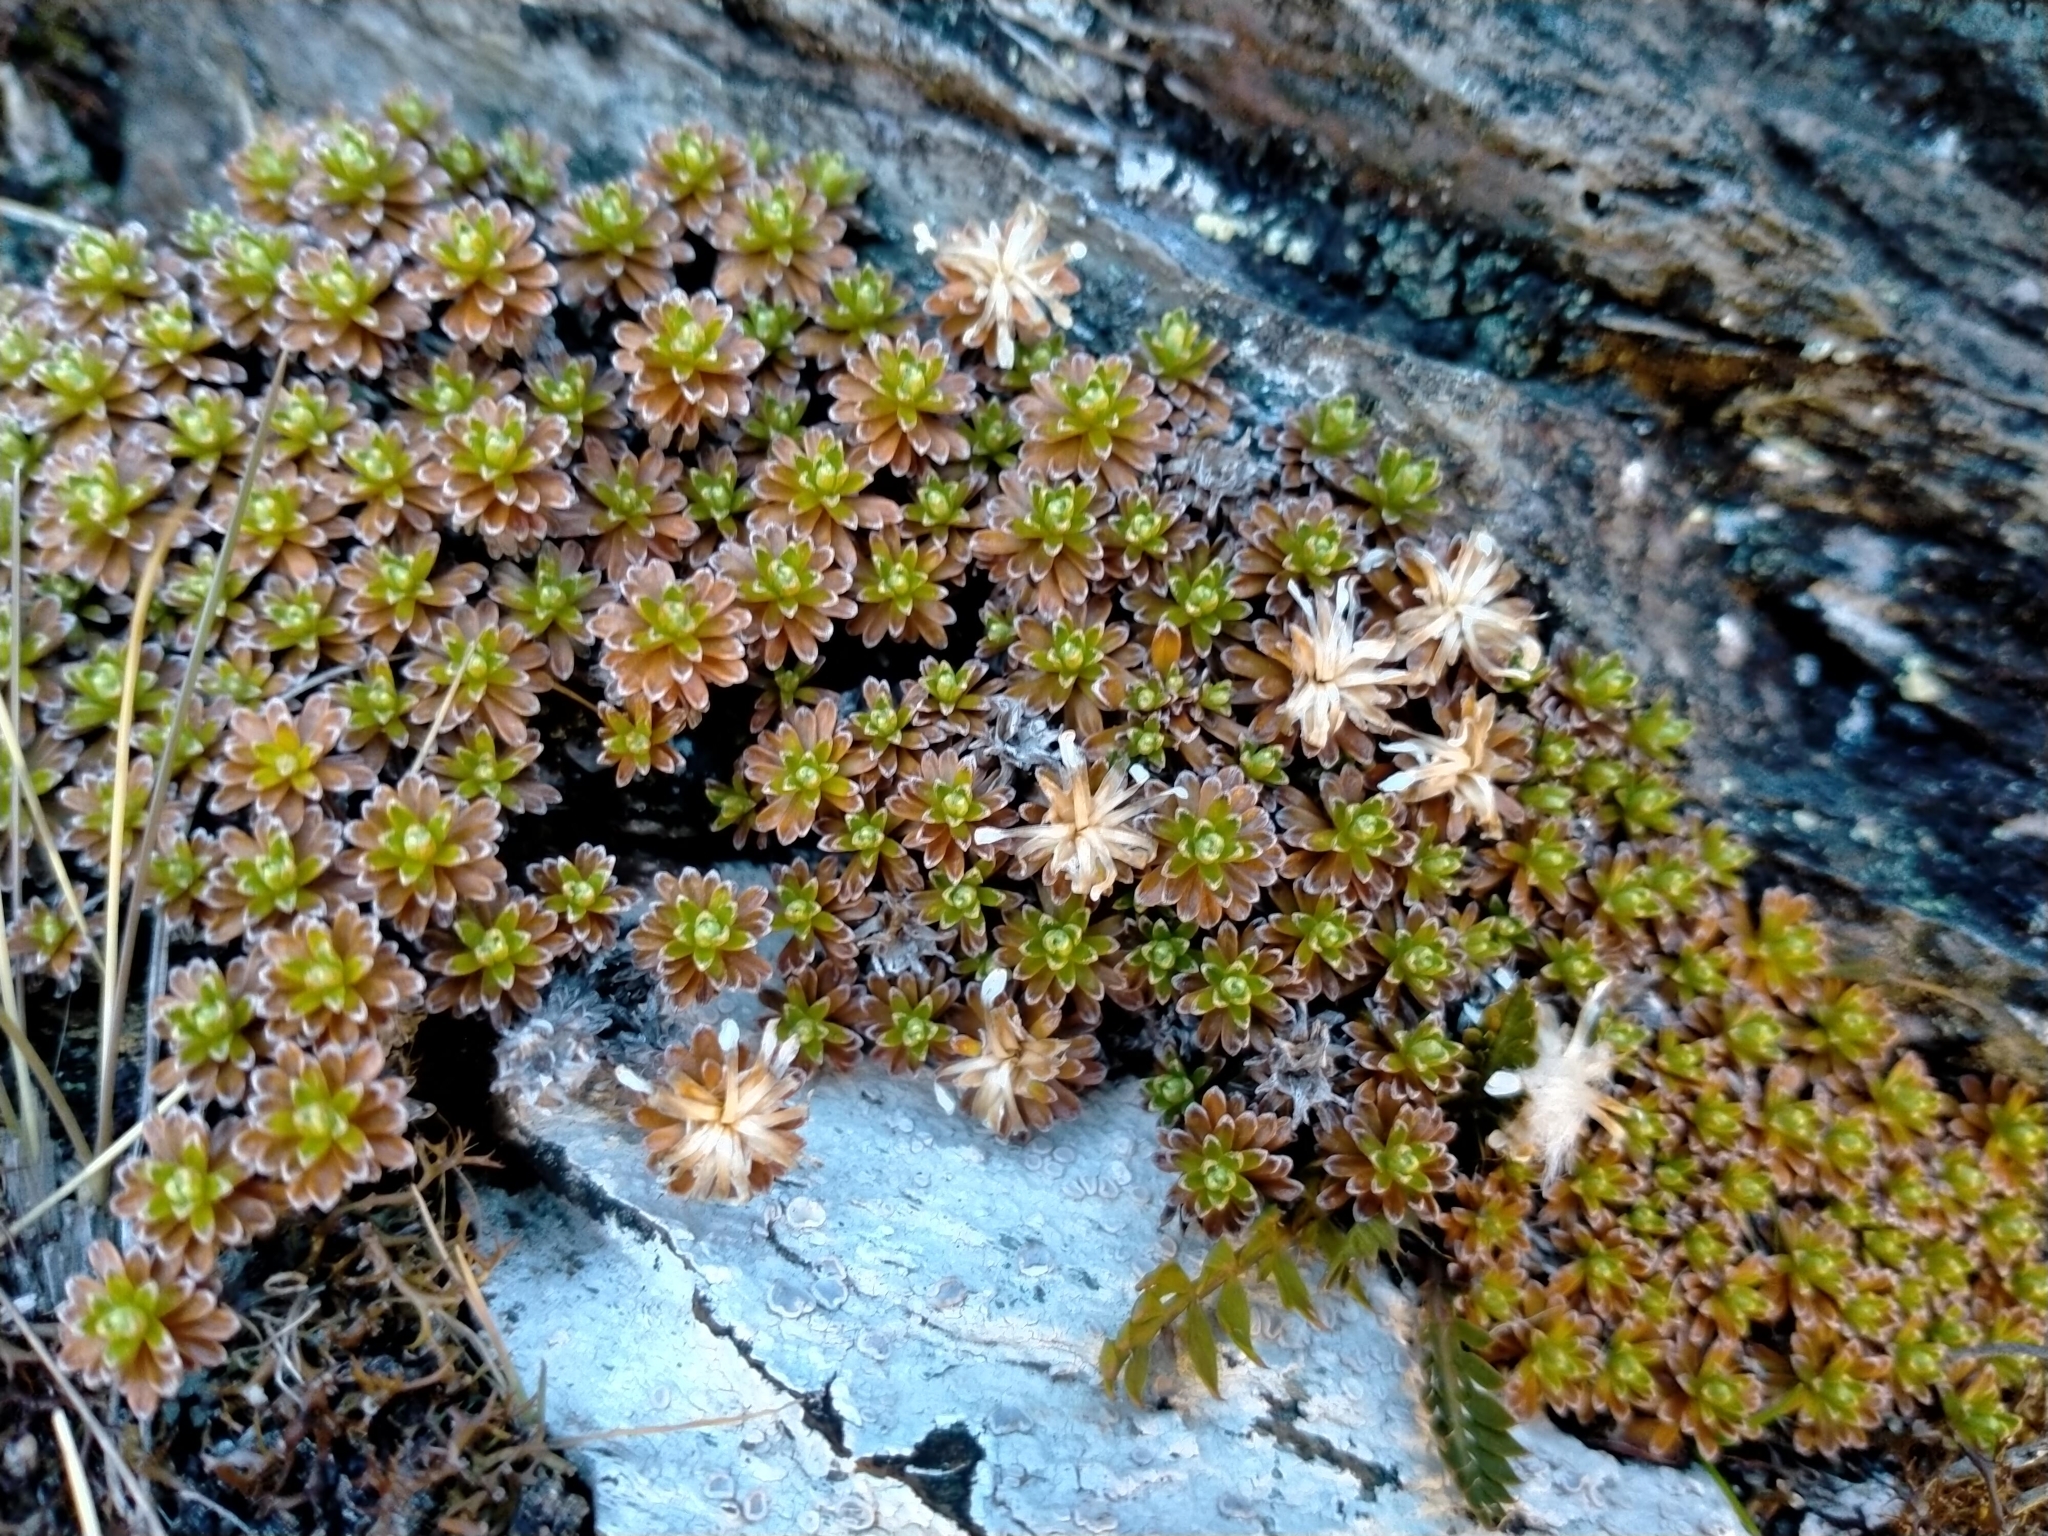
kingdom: Plantae
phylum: Tracheophyta
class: Magnoliopsida
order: Asterales
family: Asteraceae
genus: Raoulia
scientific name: Raoulia subsericea
